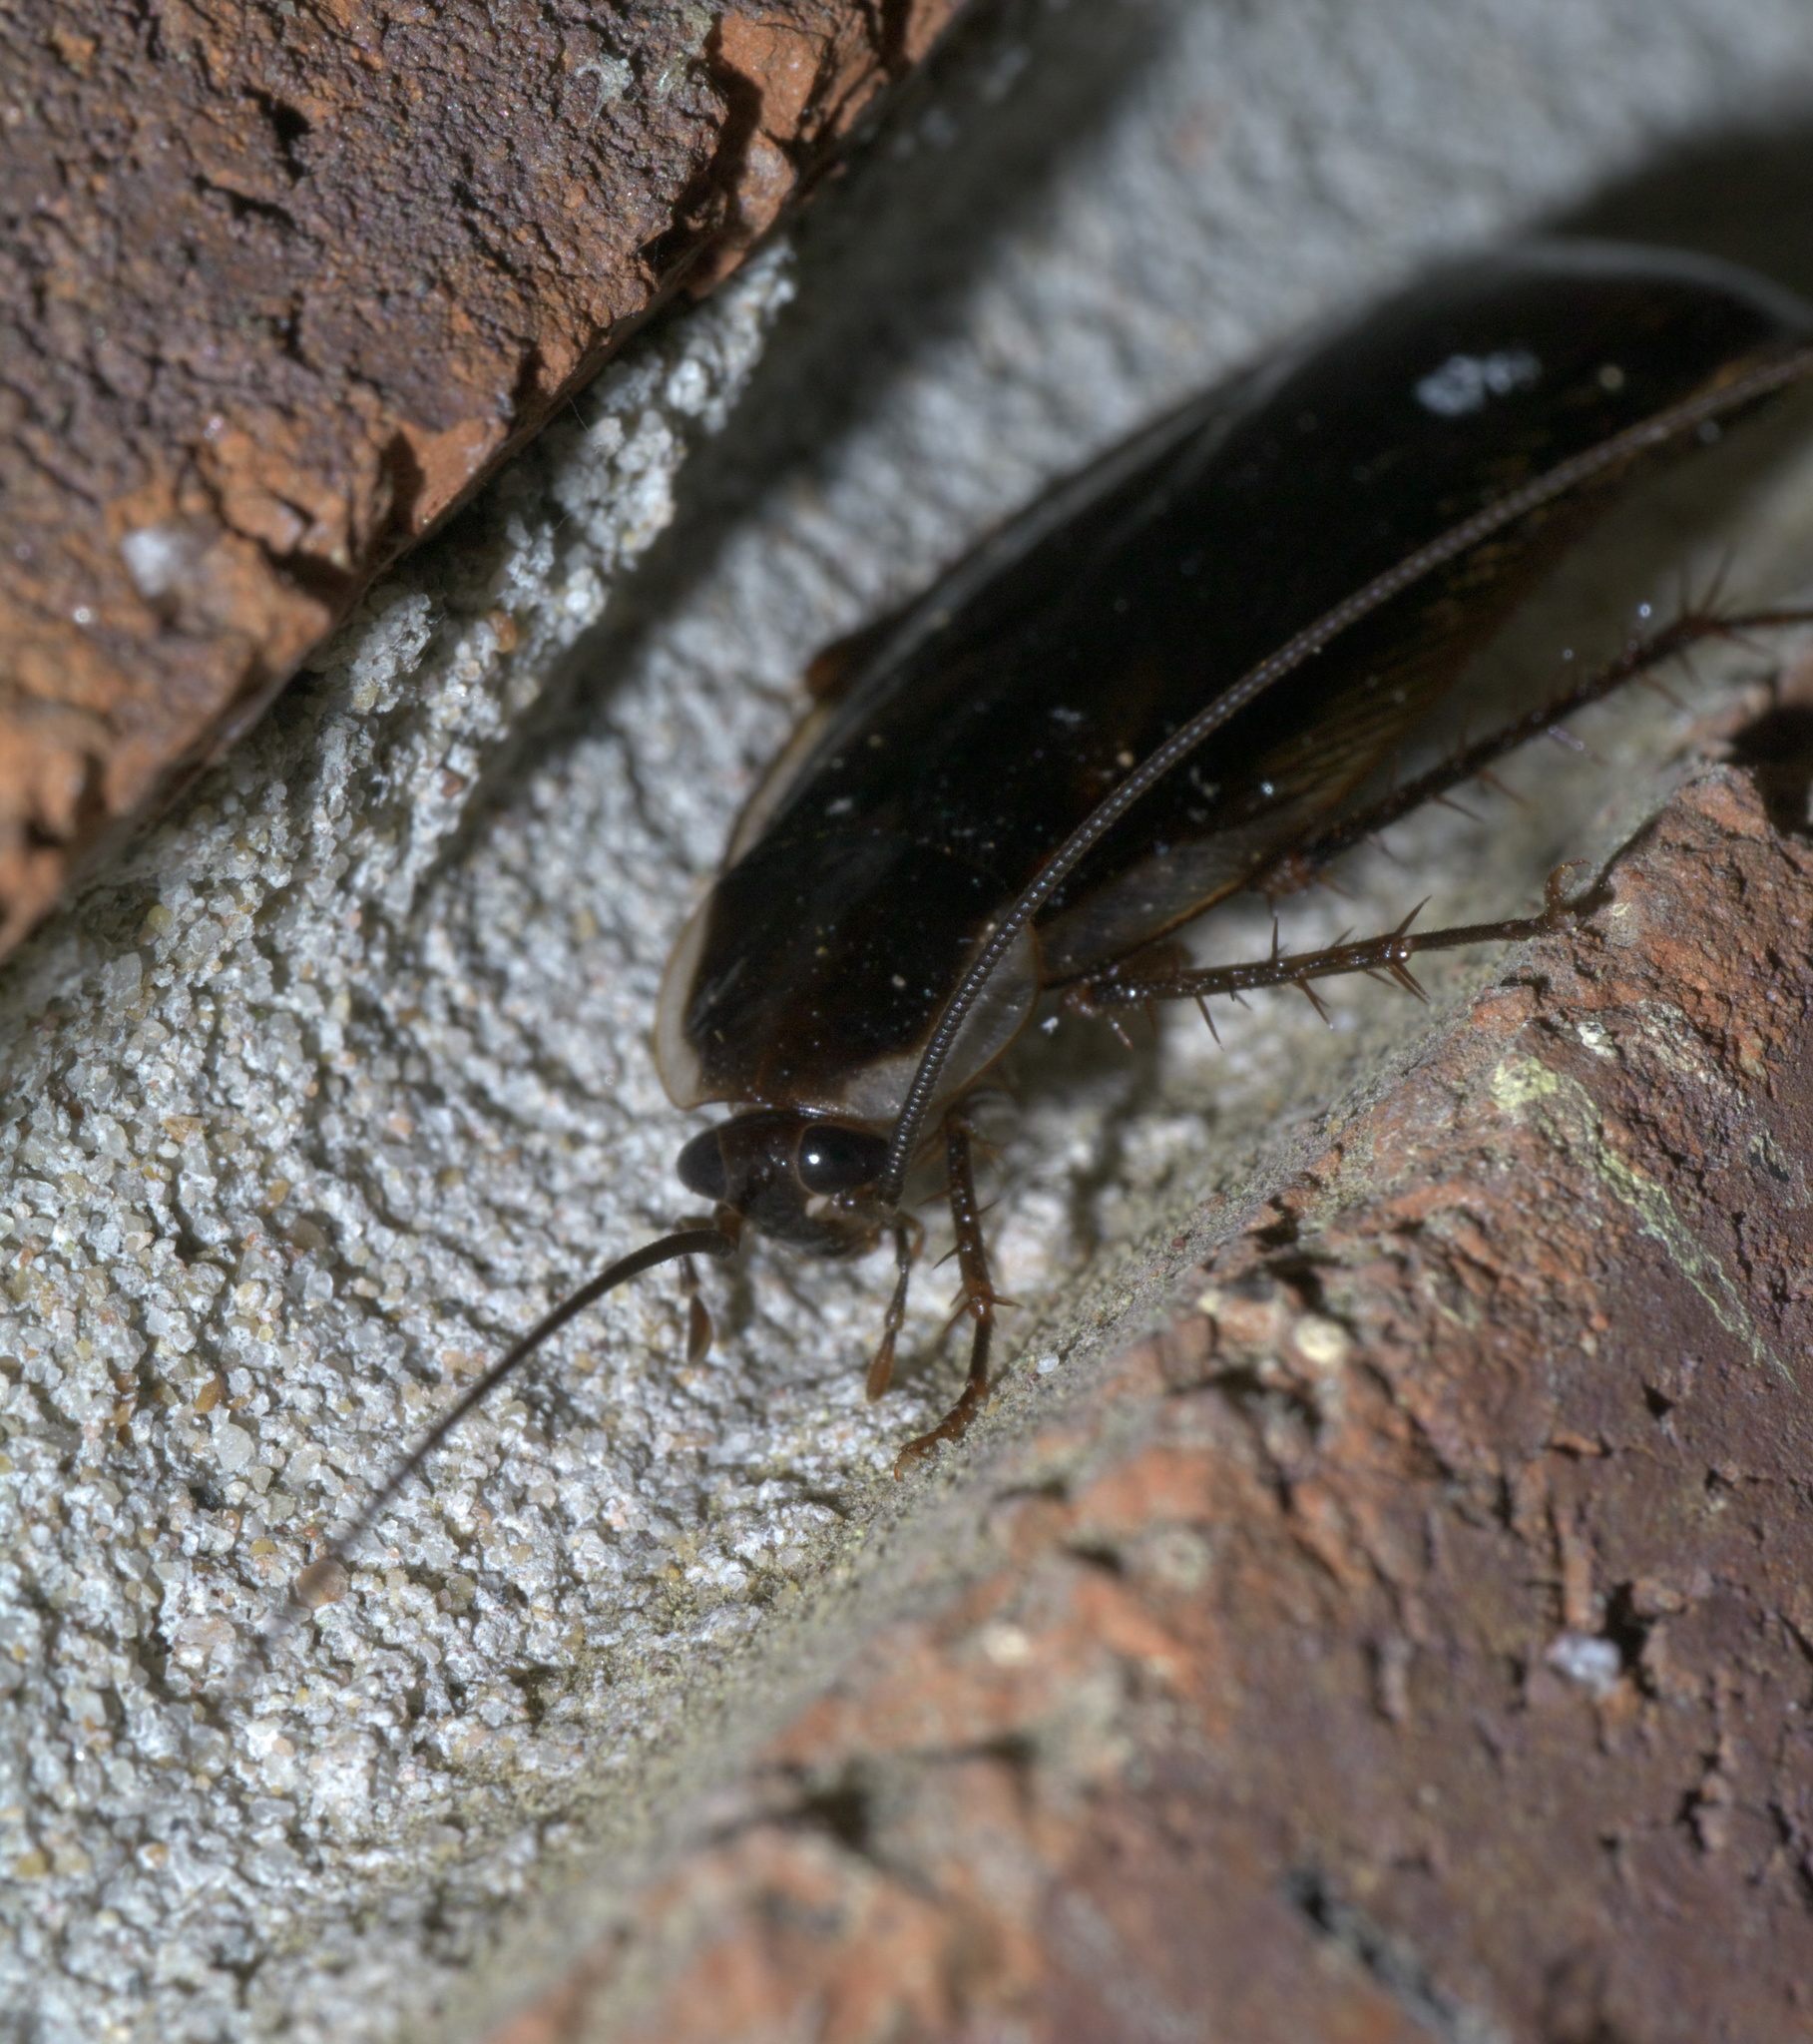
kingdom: Animalia
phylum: Arthropoda
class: Insecta
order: Blattodea
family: Ectobiidae
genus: Parcoblatta
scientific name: Parcoblatta pennsylvanica
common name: Pennsylvanian wood cockroach
